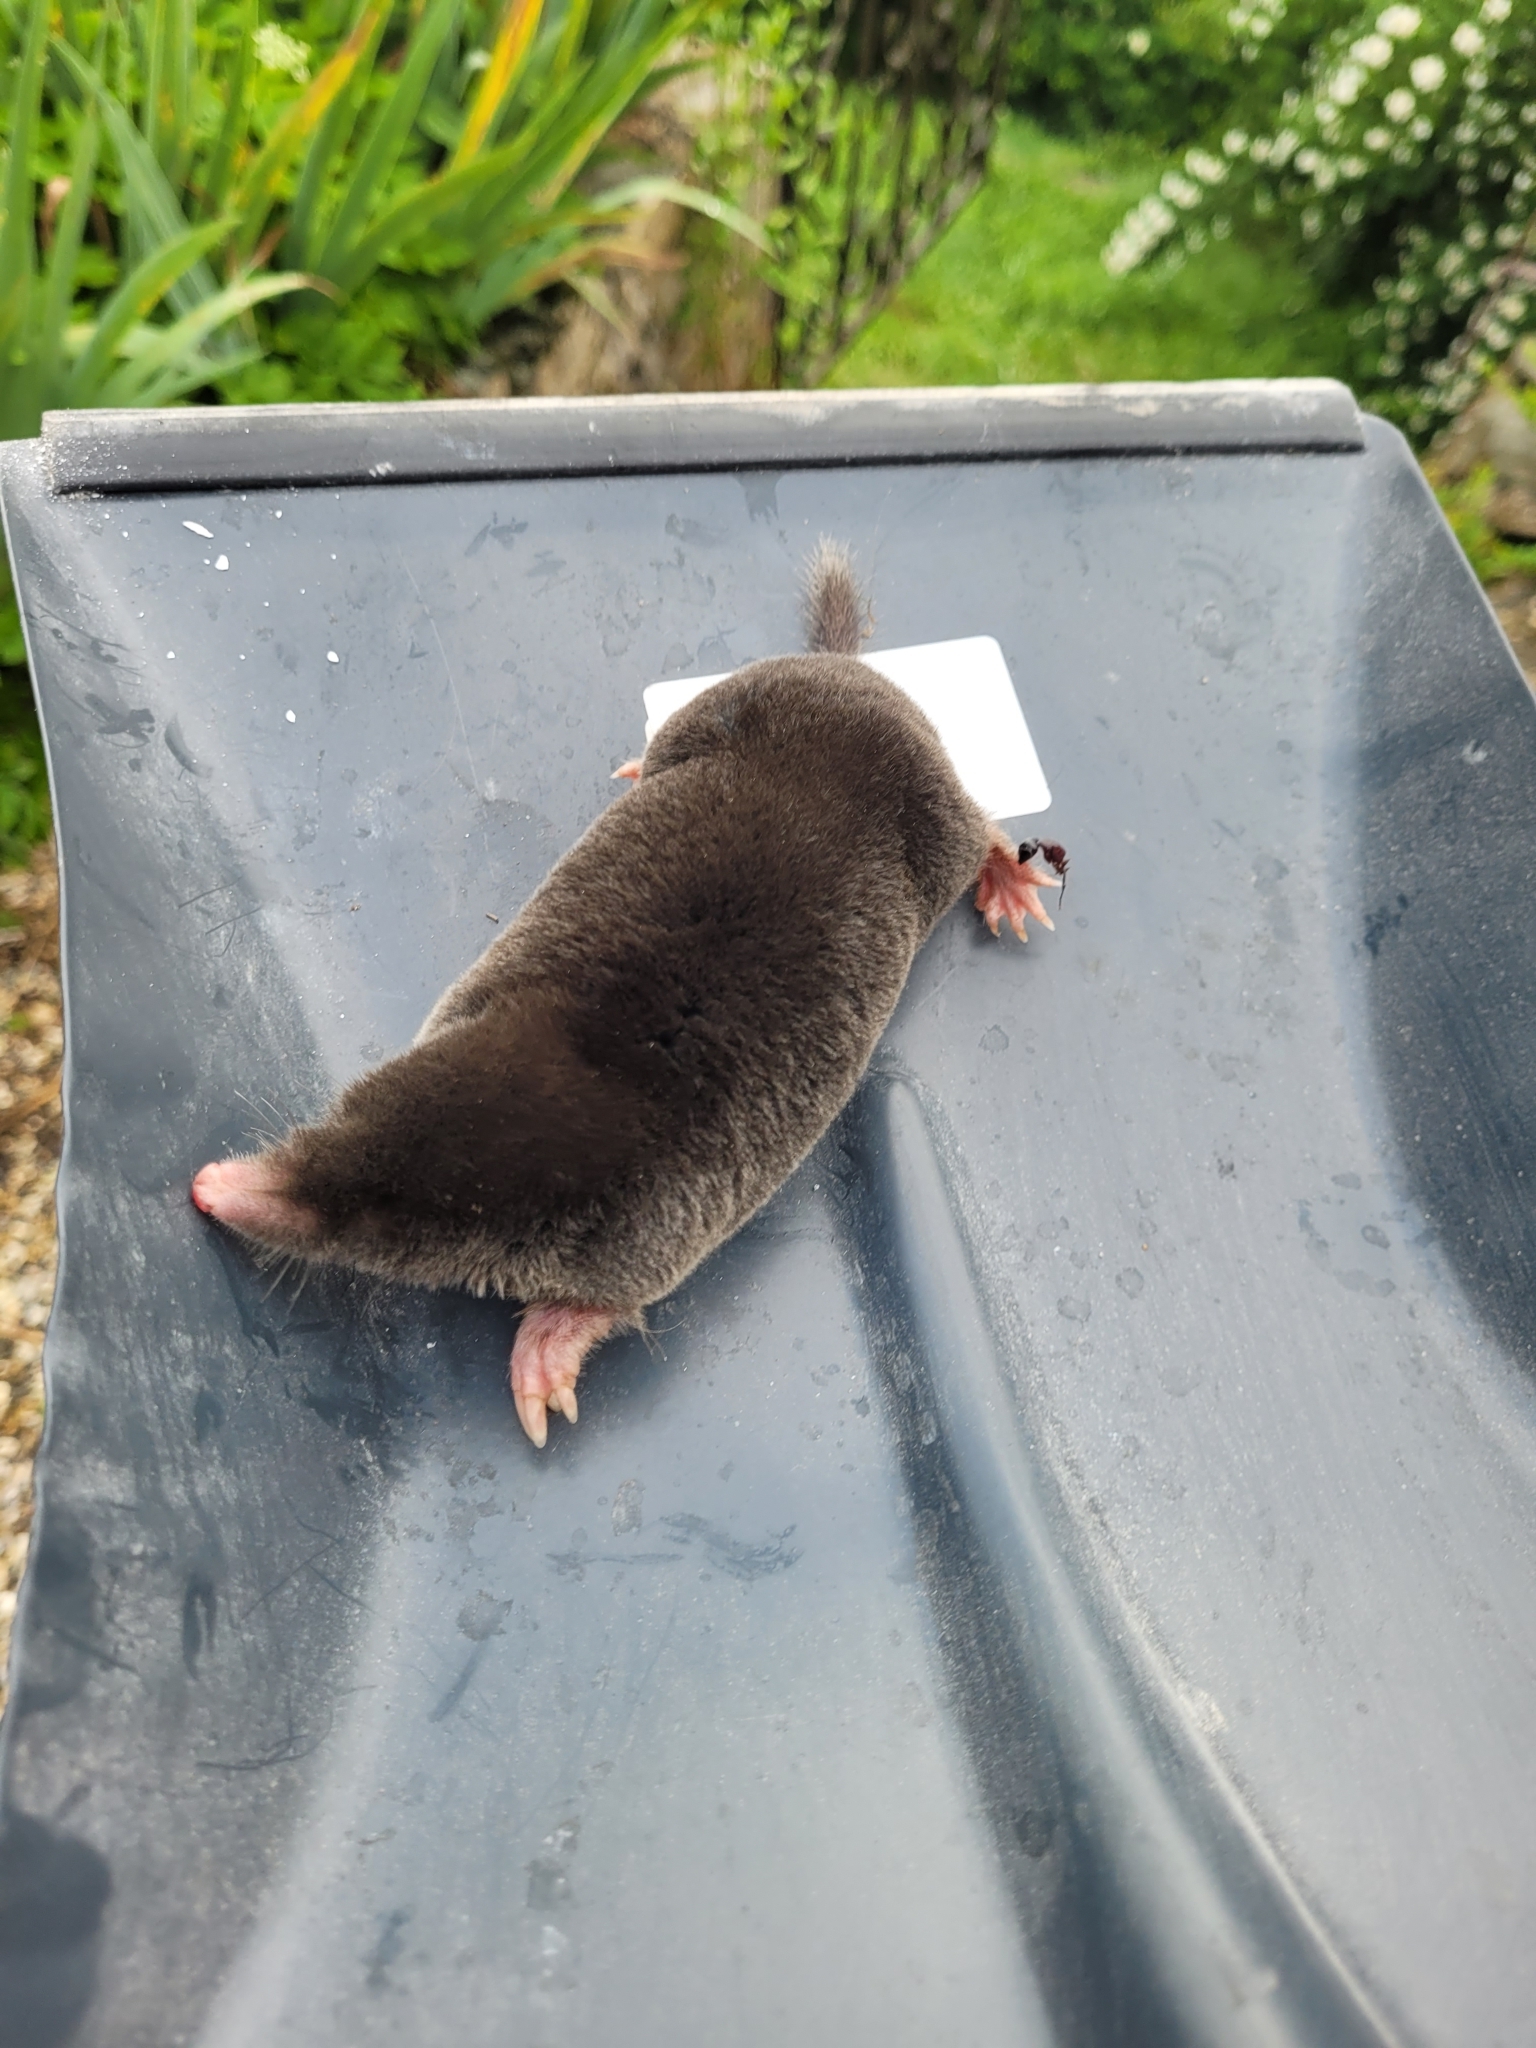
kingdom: Animalia
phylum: Chordata
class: Mammalia
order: Soricomorpha
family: Talpidae
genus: Talpa
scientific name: Talpa europaea
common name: European mole
